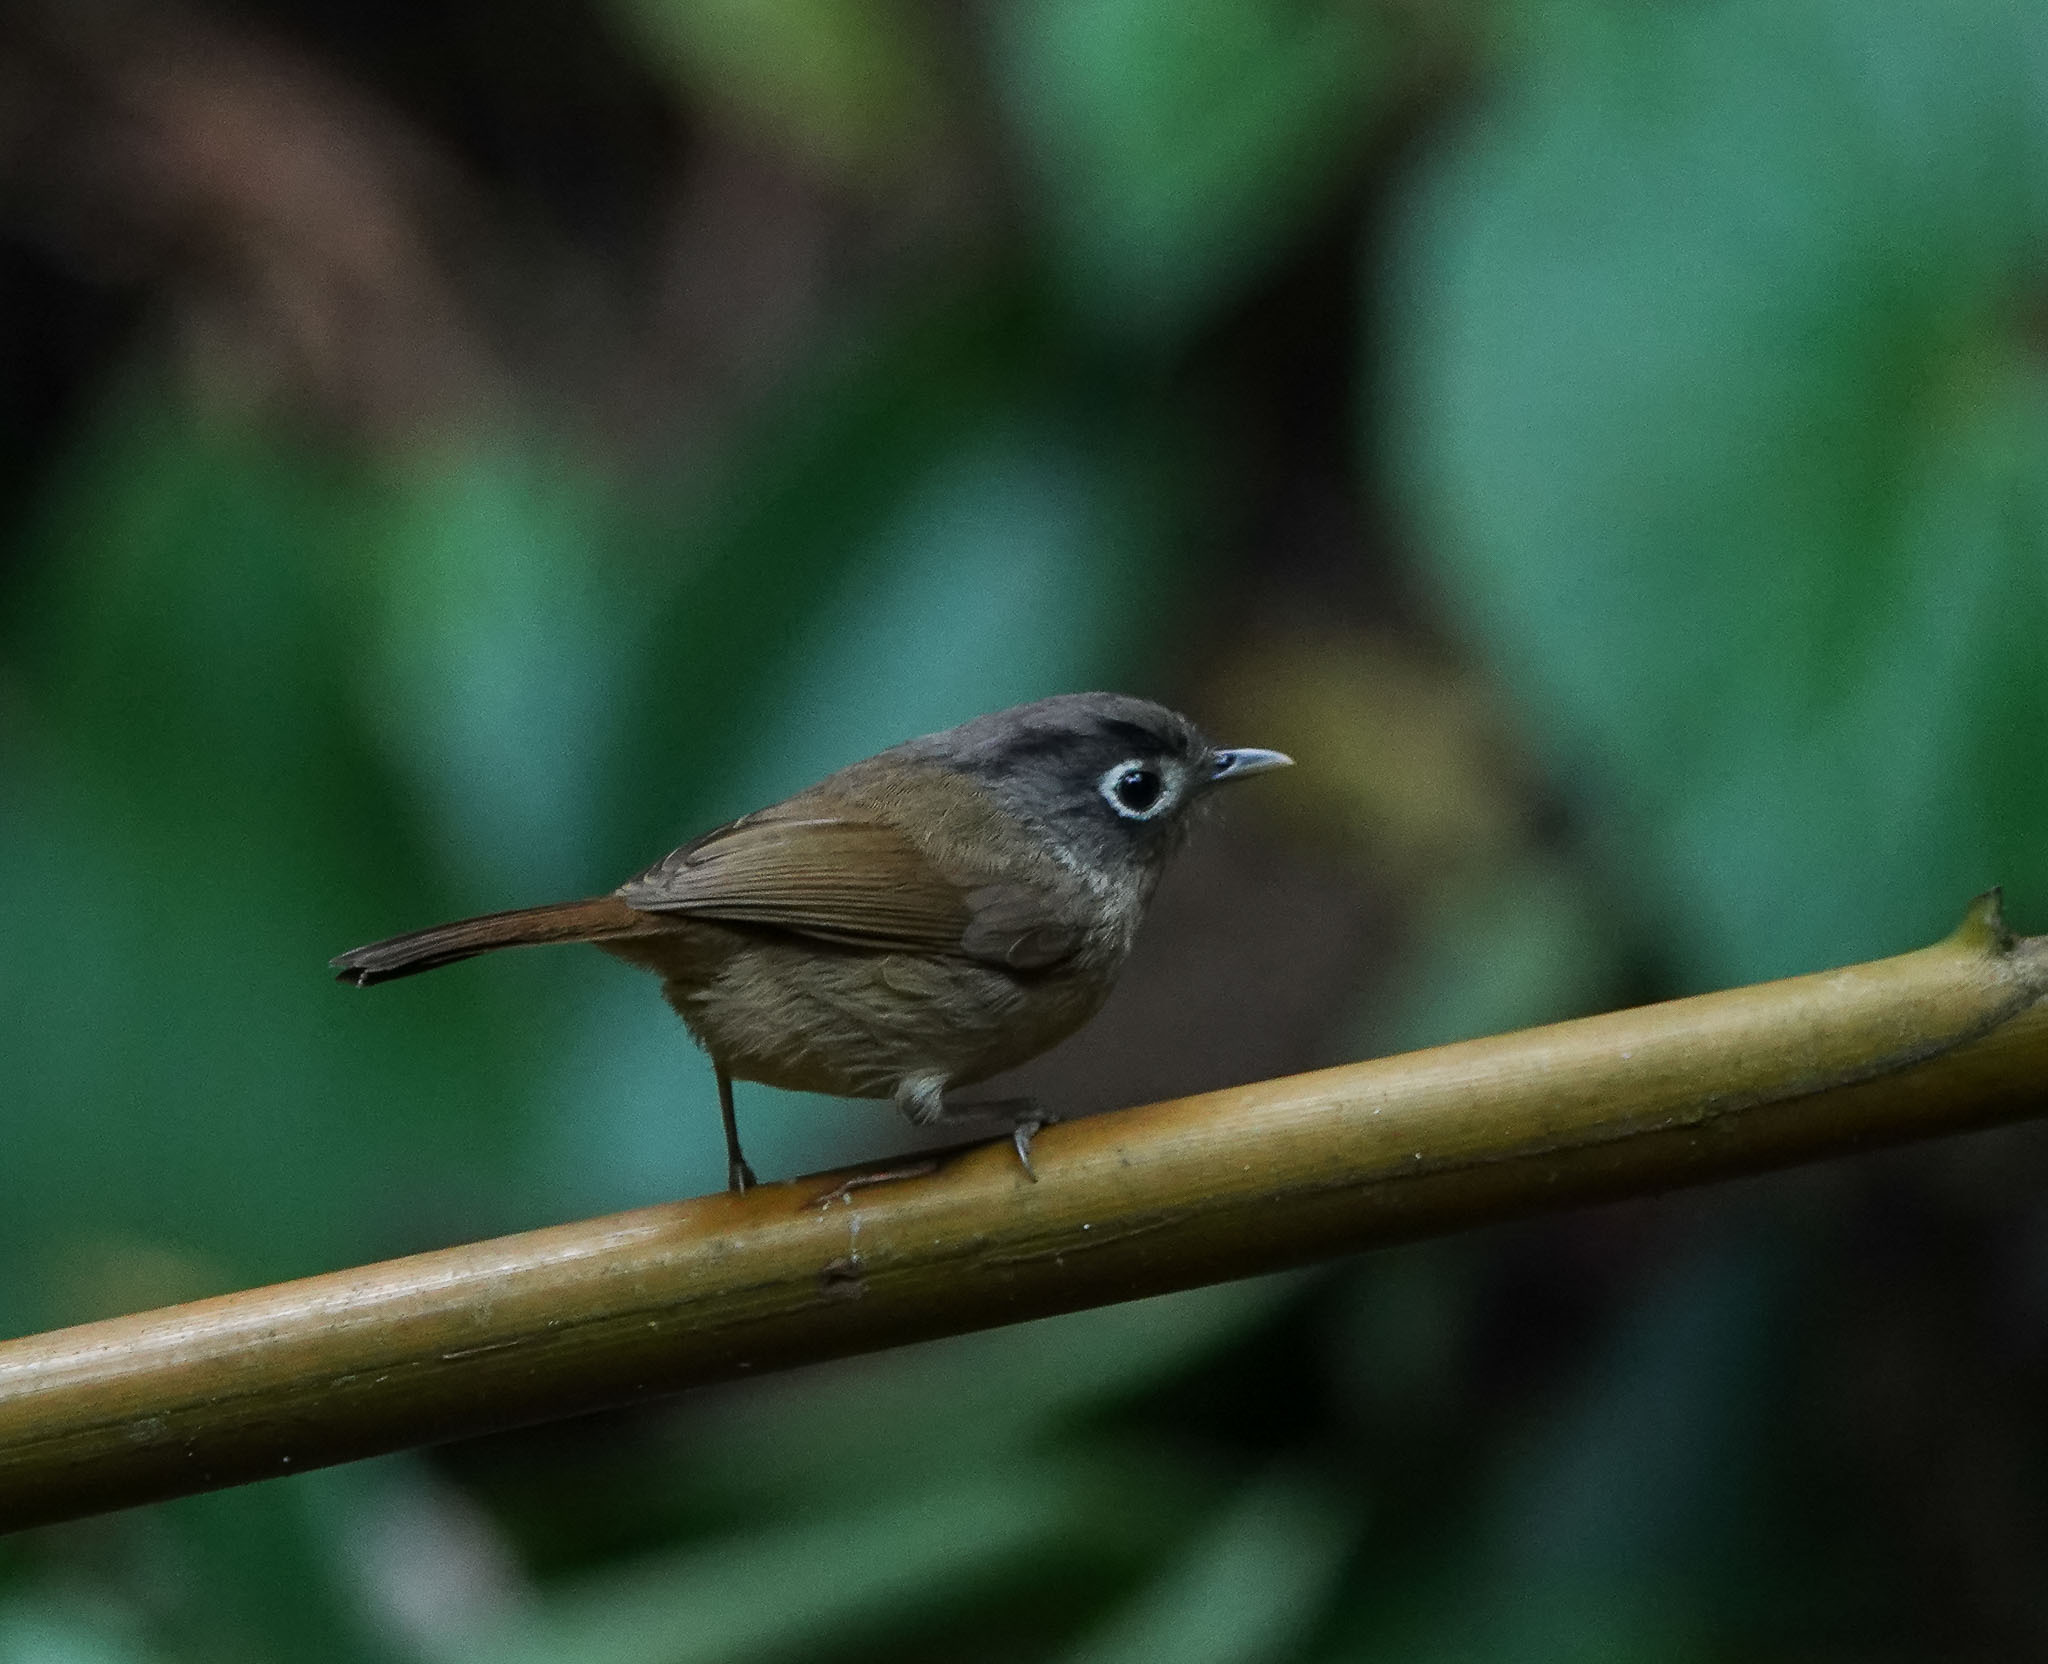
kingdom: Animalia
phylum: Chordata
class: Aves
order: Passeriformes
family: Pellorneidae
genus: Alcippe
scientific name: Alcippe nipalensis
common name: Nepal fulvetta
